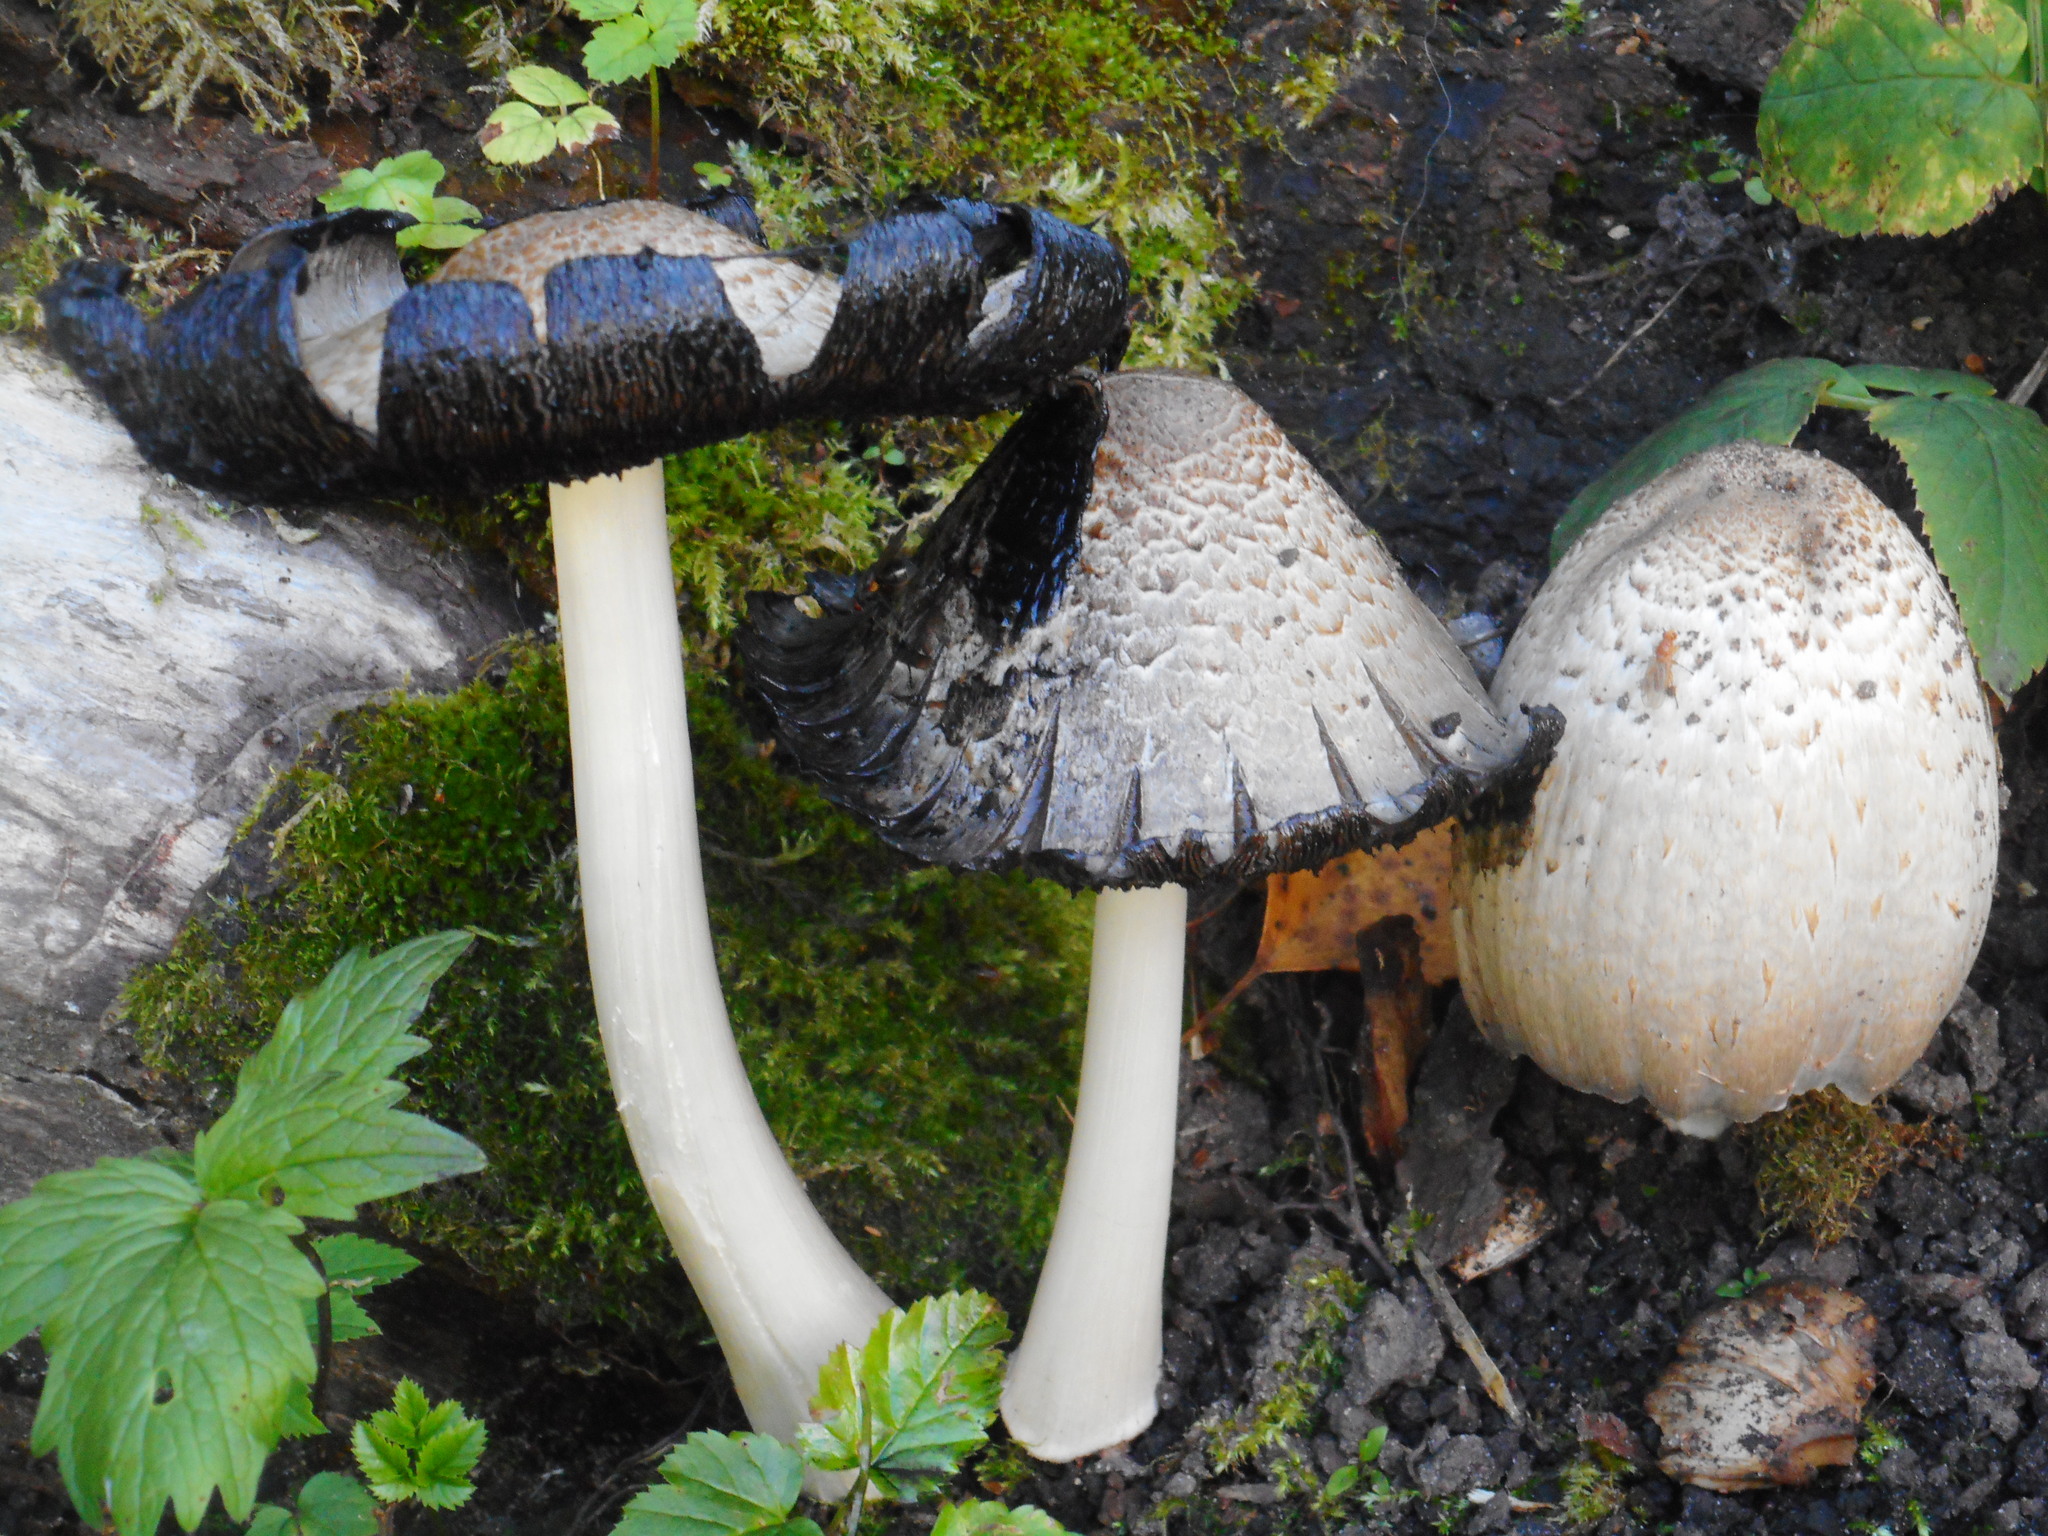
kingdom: Fungi
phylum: Basidiomycota
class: Agaricomycetes
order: Agaricales
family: Psathyrellaceae
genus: Coprinopsis
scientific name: Coprinopsis atramentaria
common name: Common ink-cap
